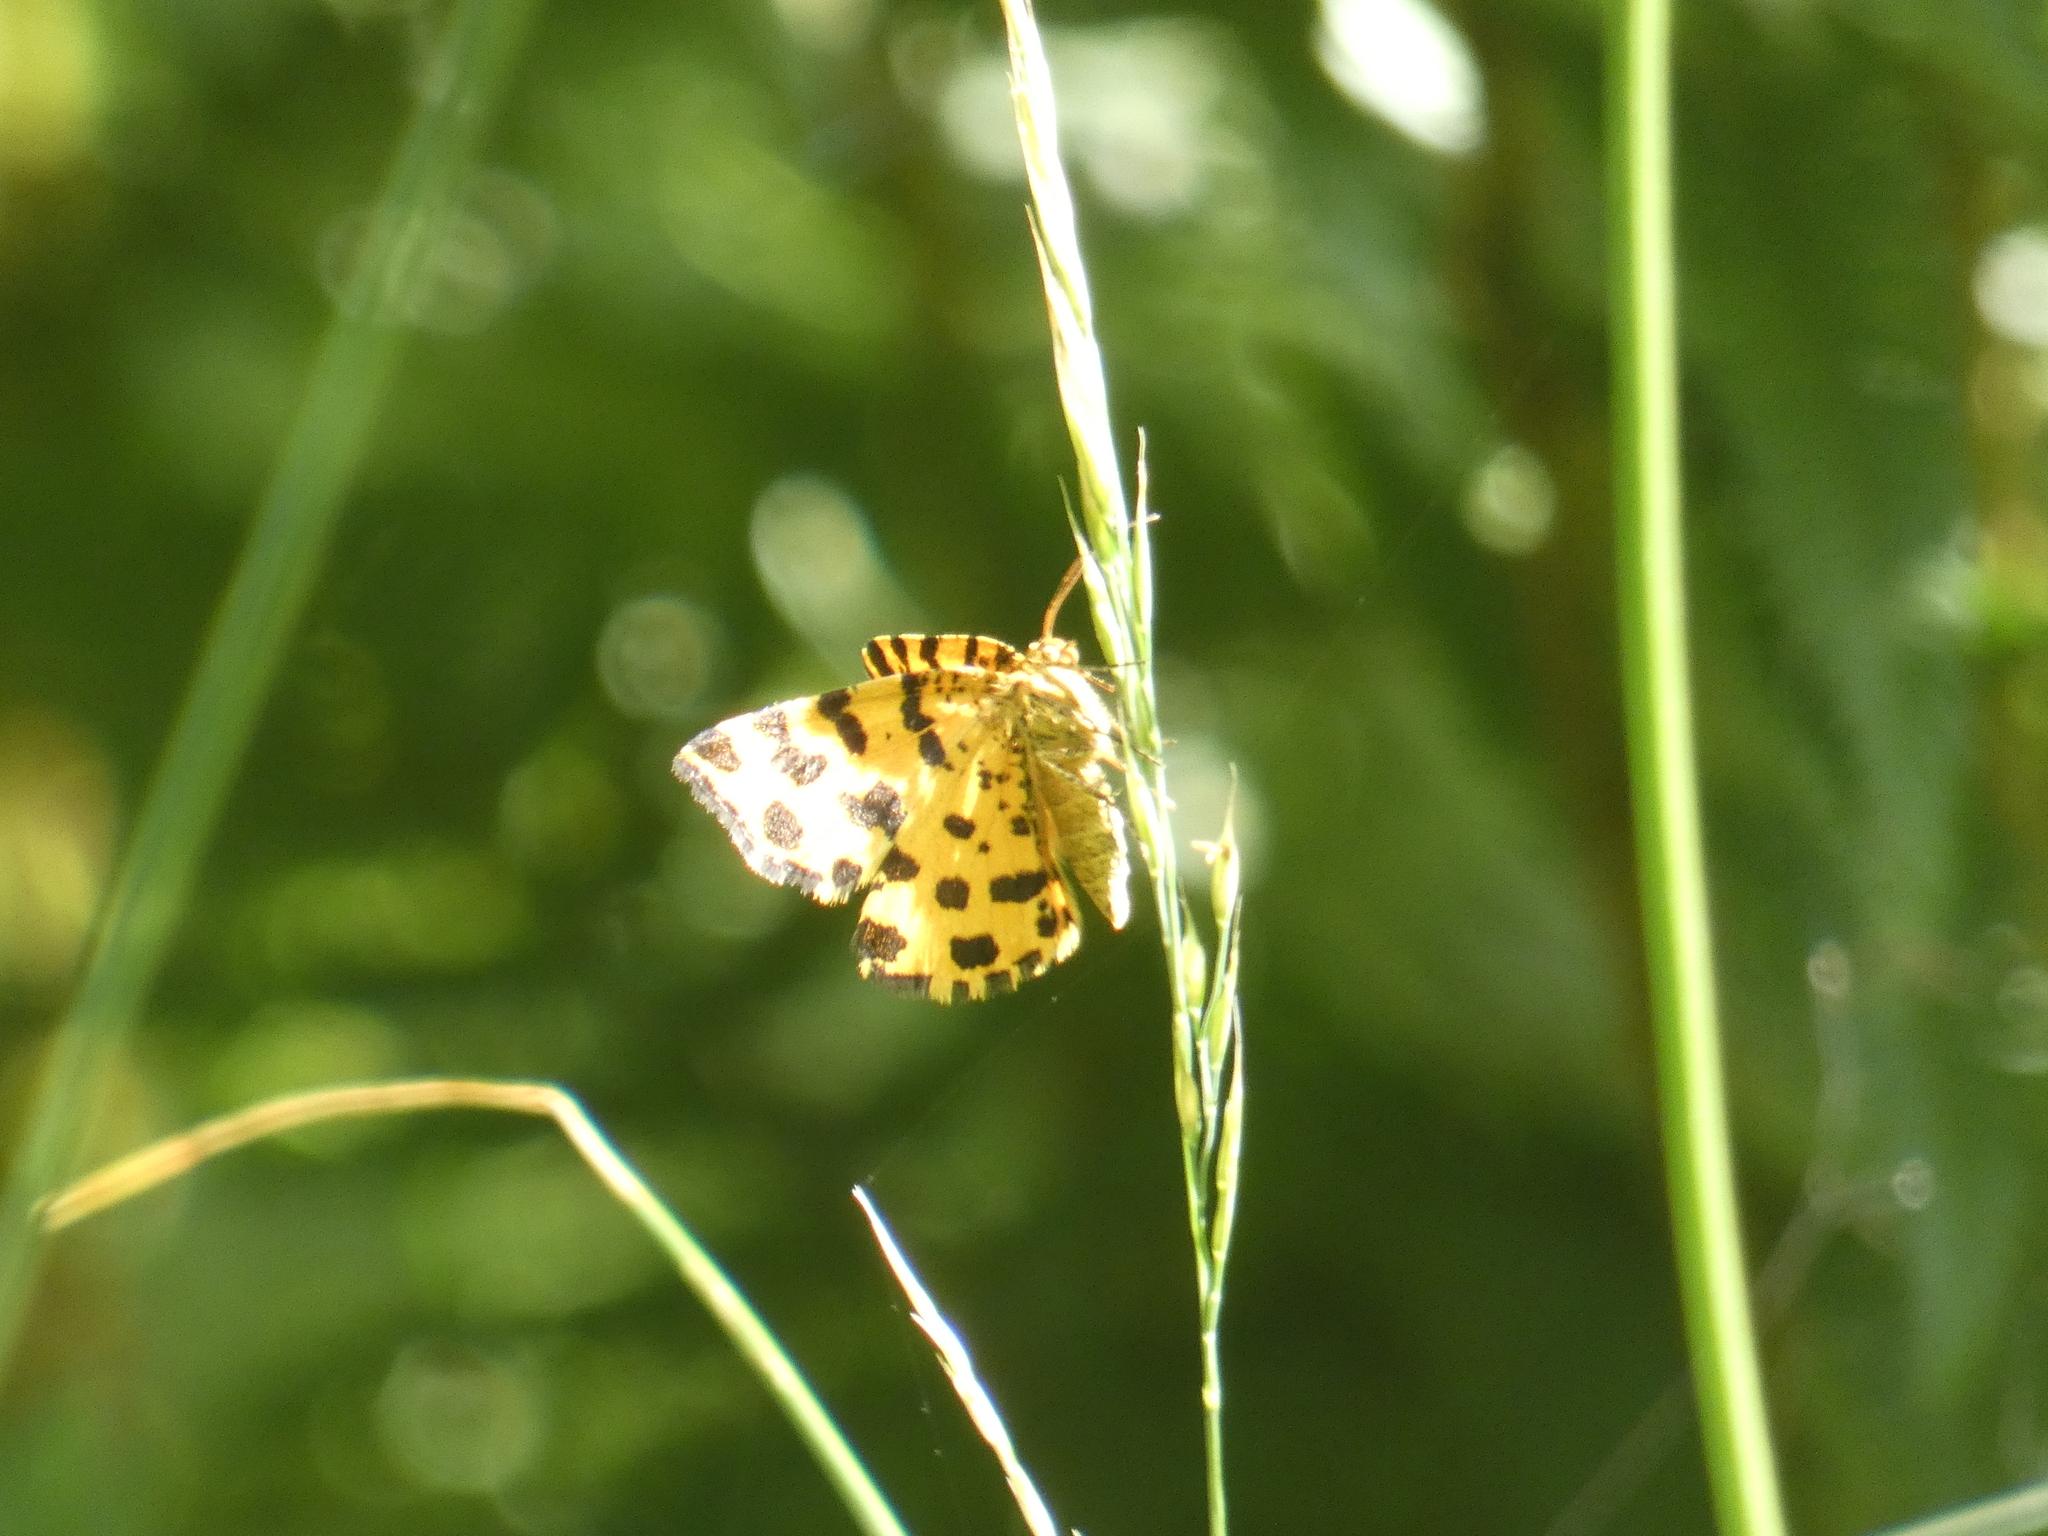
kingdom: Animalia
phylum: Arthropoda
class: Insecta
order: Lepidoptera
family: Geometridae
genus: Pseudopanthera
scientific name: Pseudopanthera macularia
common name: Speckled yellow
